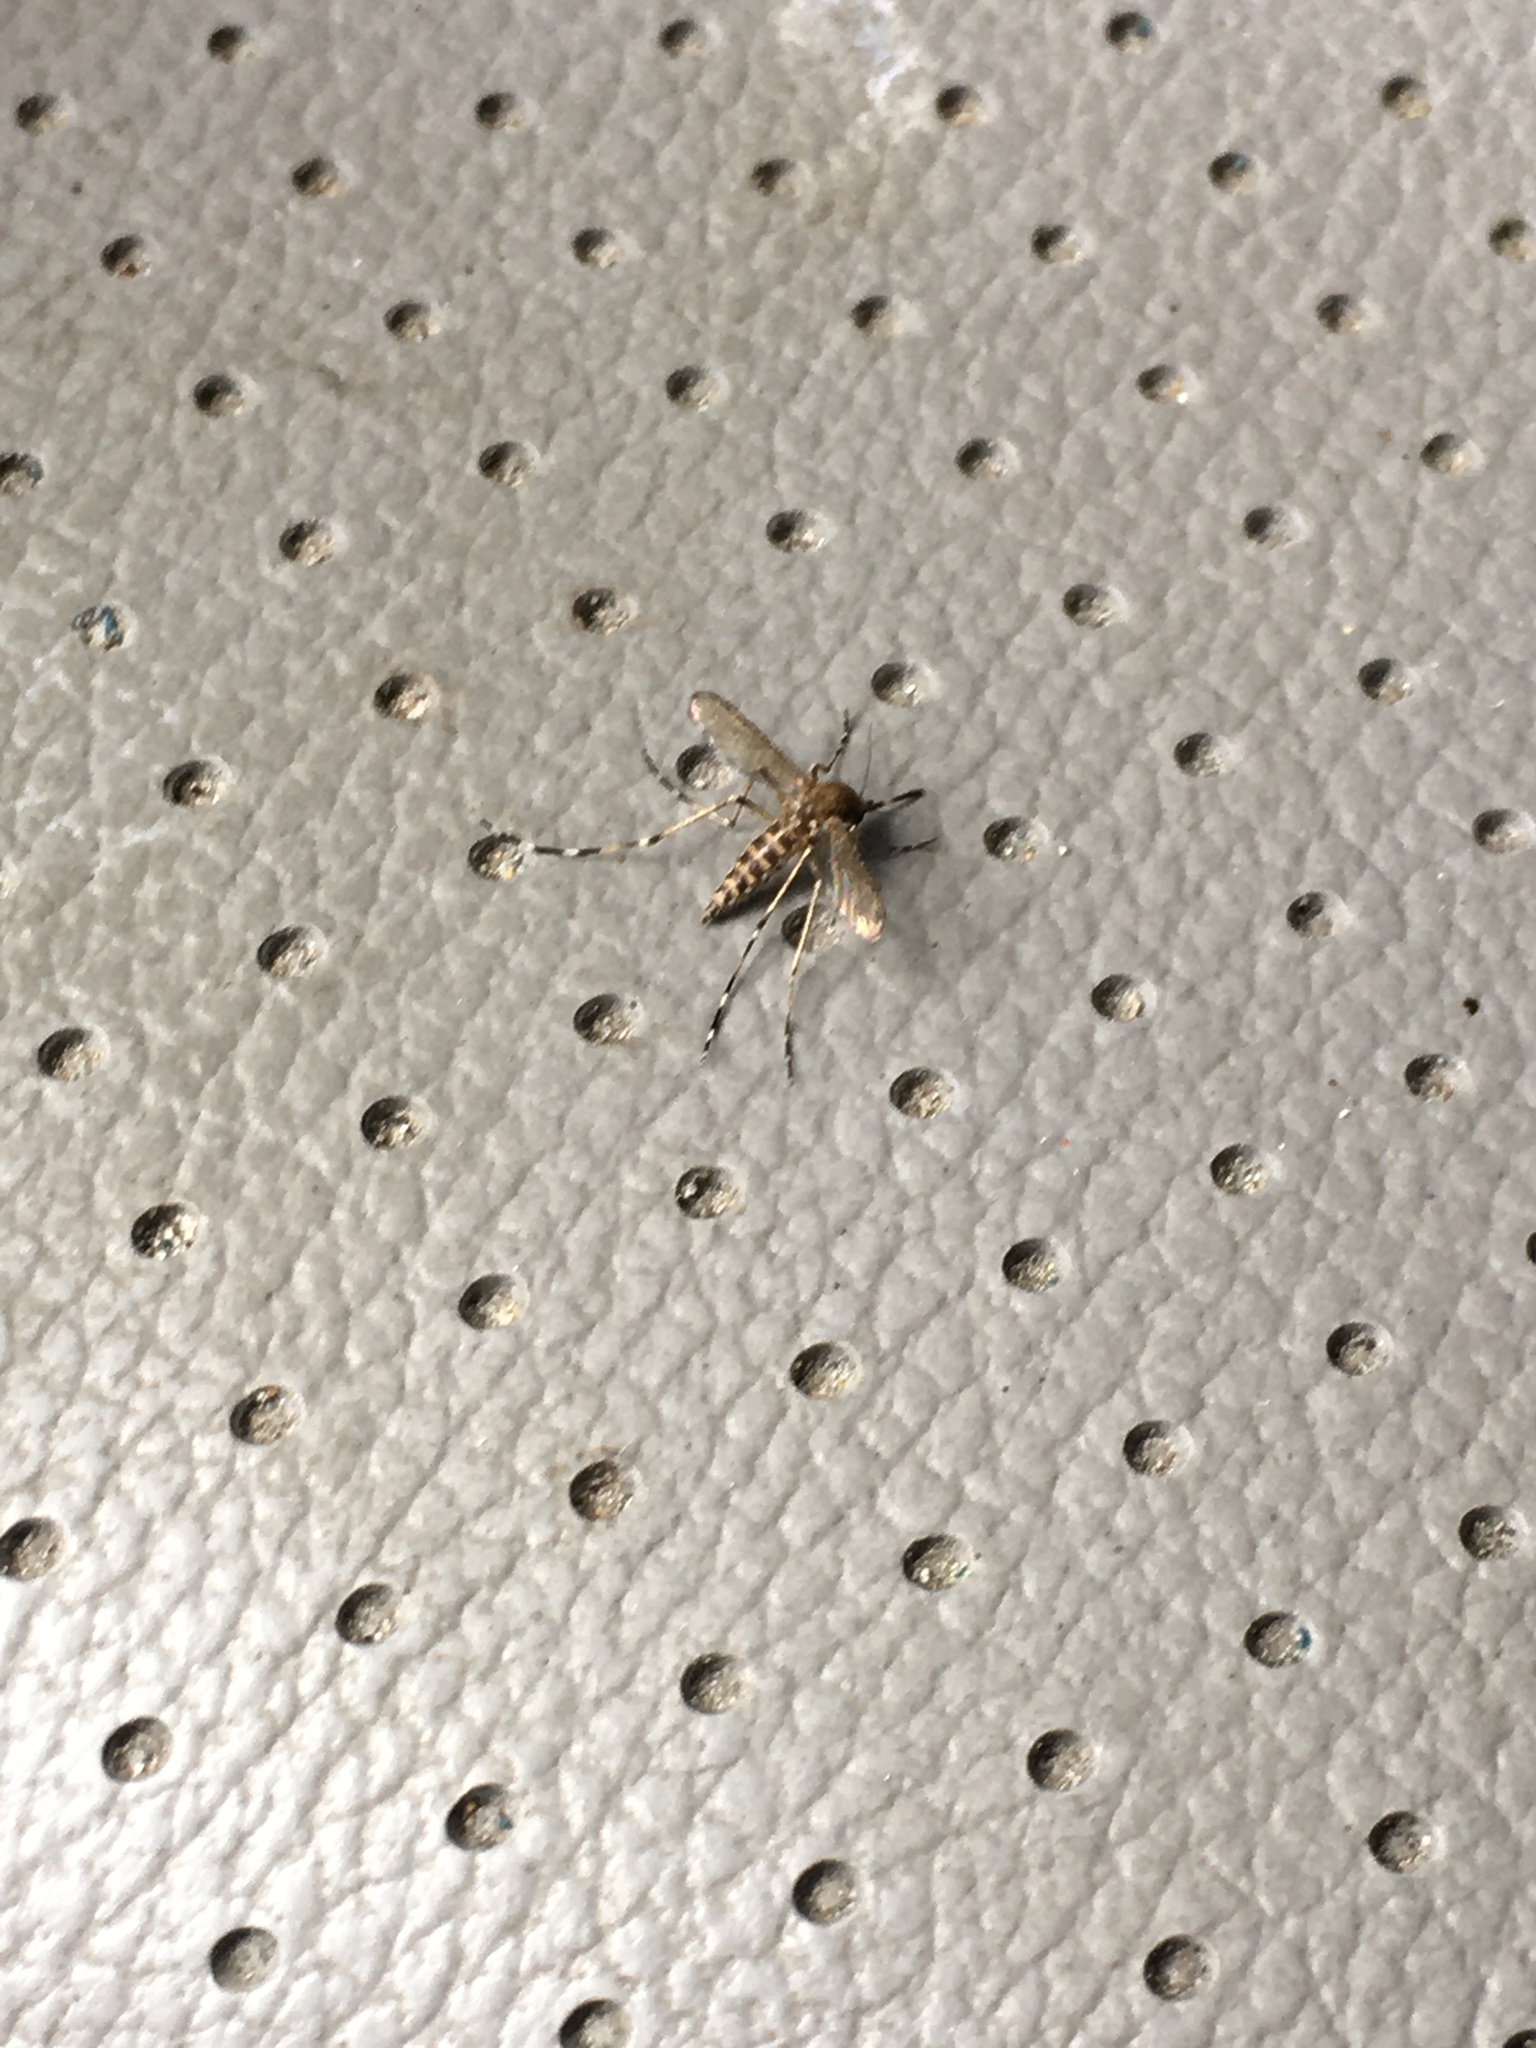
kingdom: Animalia
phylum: Arthropoda
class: Insecta
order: Diptera
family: Culicidae
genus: Aedes
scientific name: Aedes sollicitans
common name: Saltmarsh mosquito
